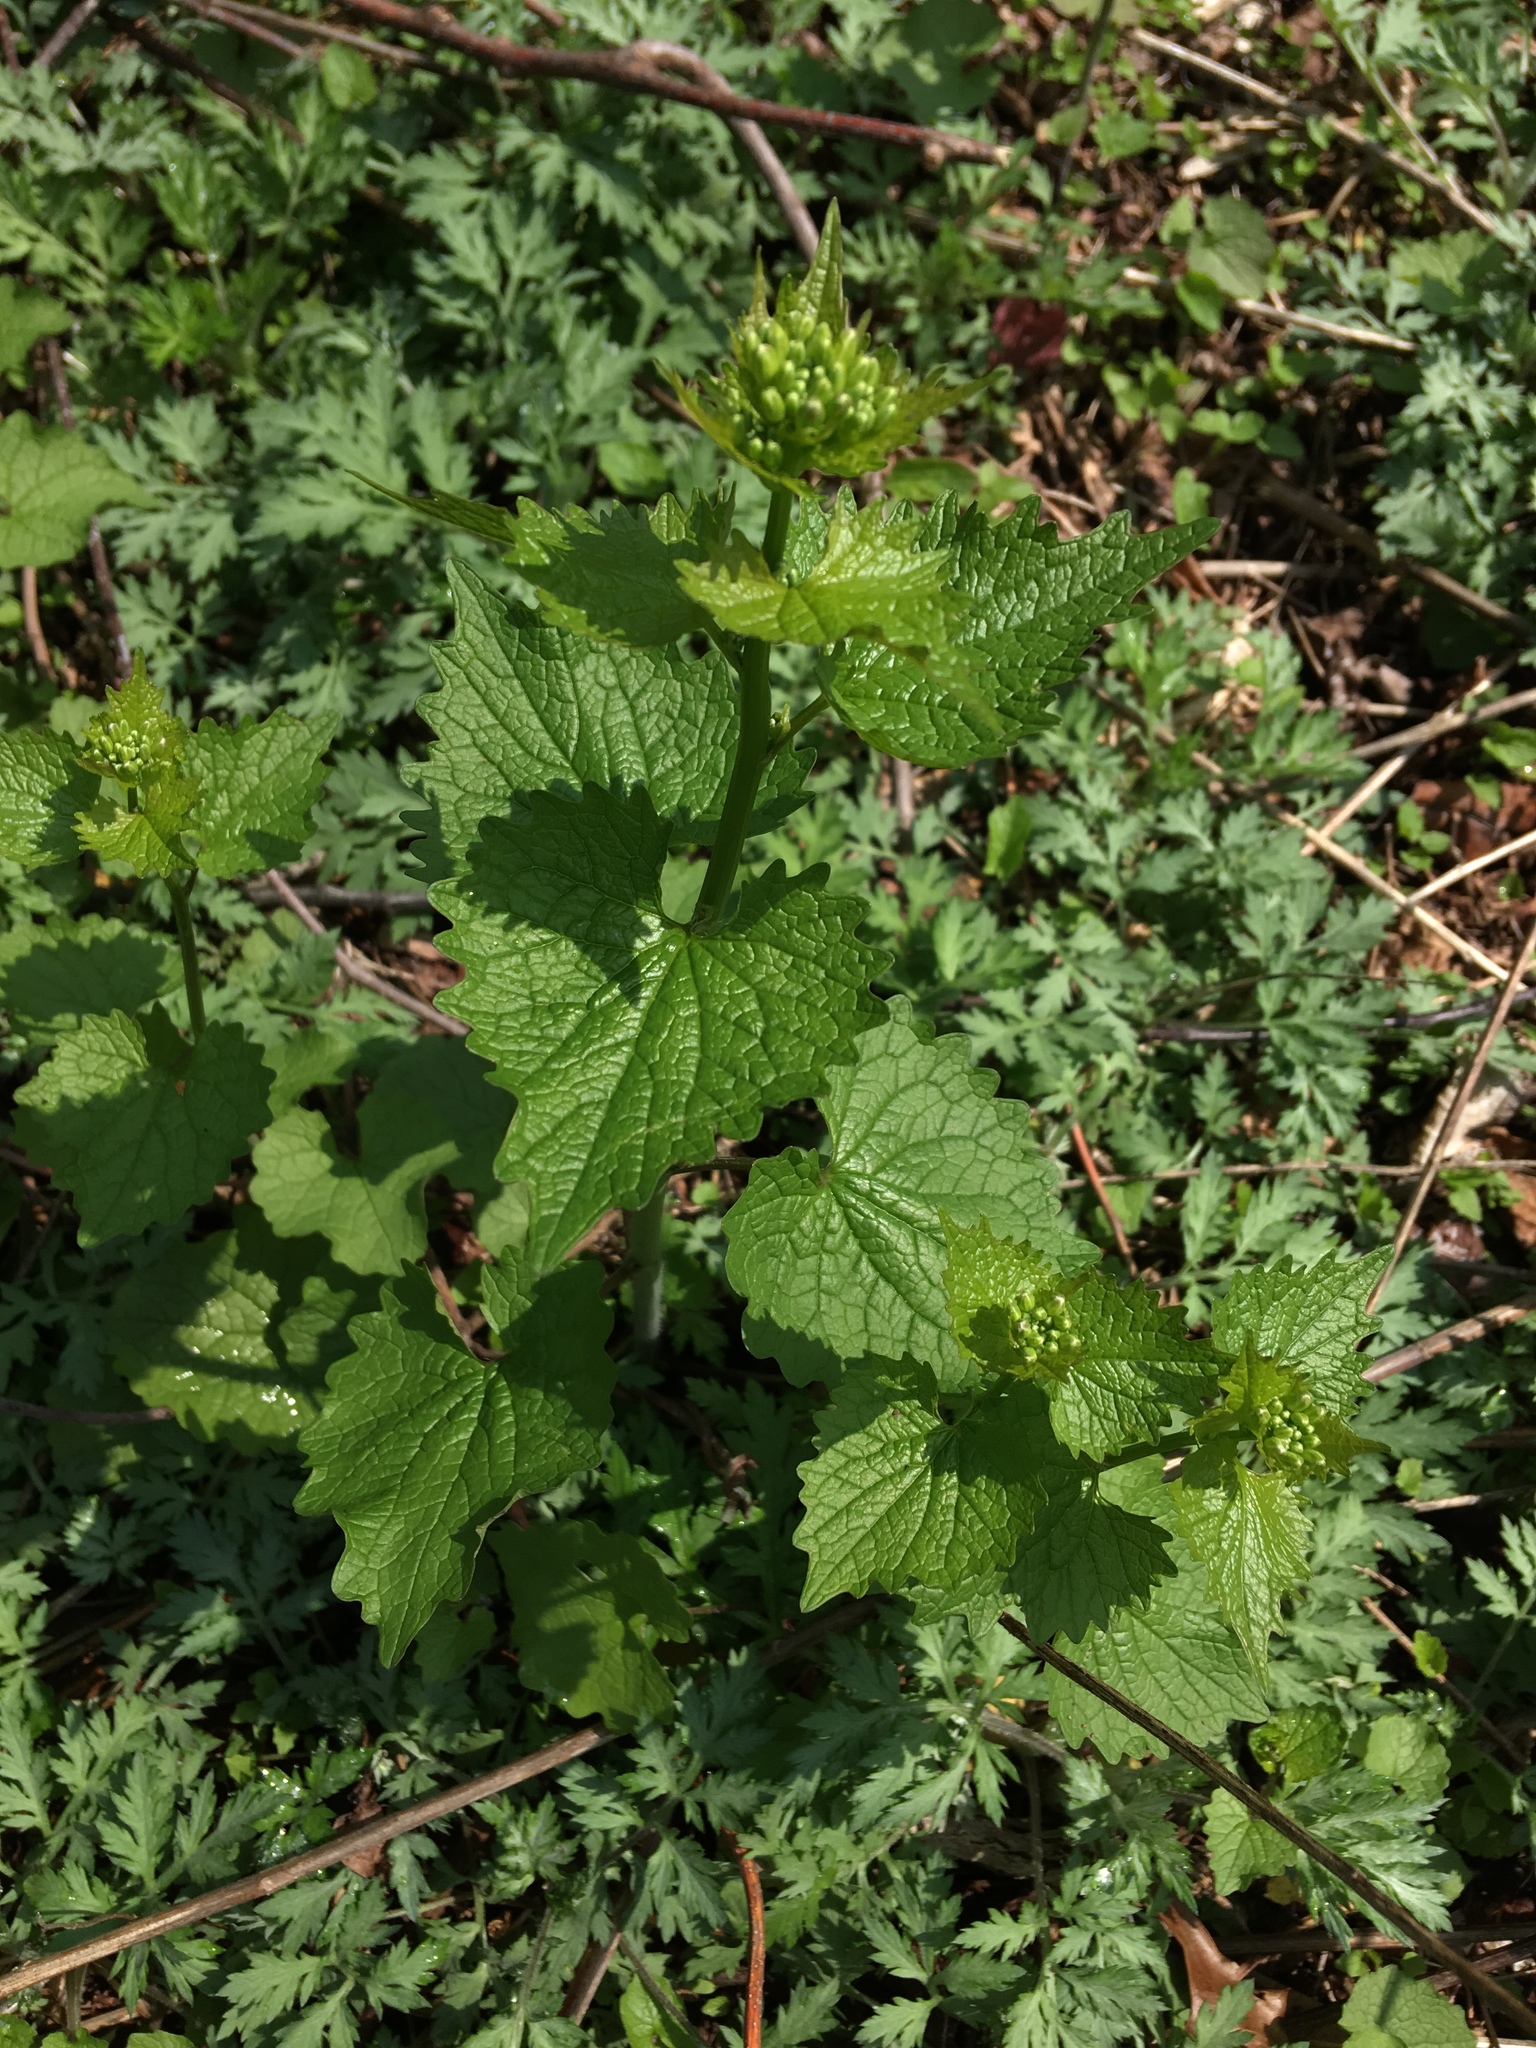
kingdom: Plantae
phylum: Tracheophyta
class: Magnoliopsida
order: Brassicales
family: Brassicaceae
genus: Alliaria
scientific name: Alliaria petiolata
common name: Garlic mustard
